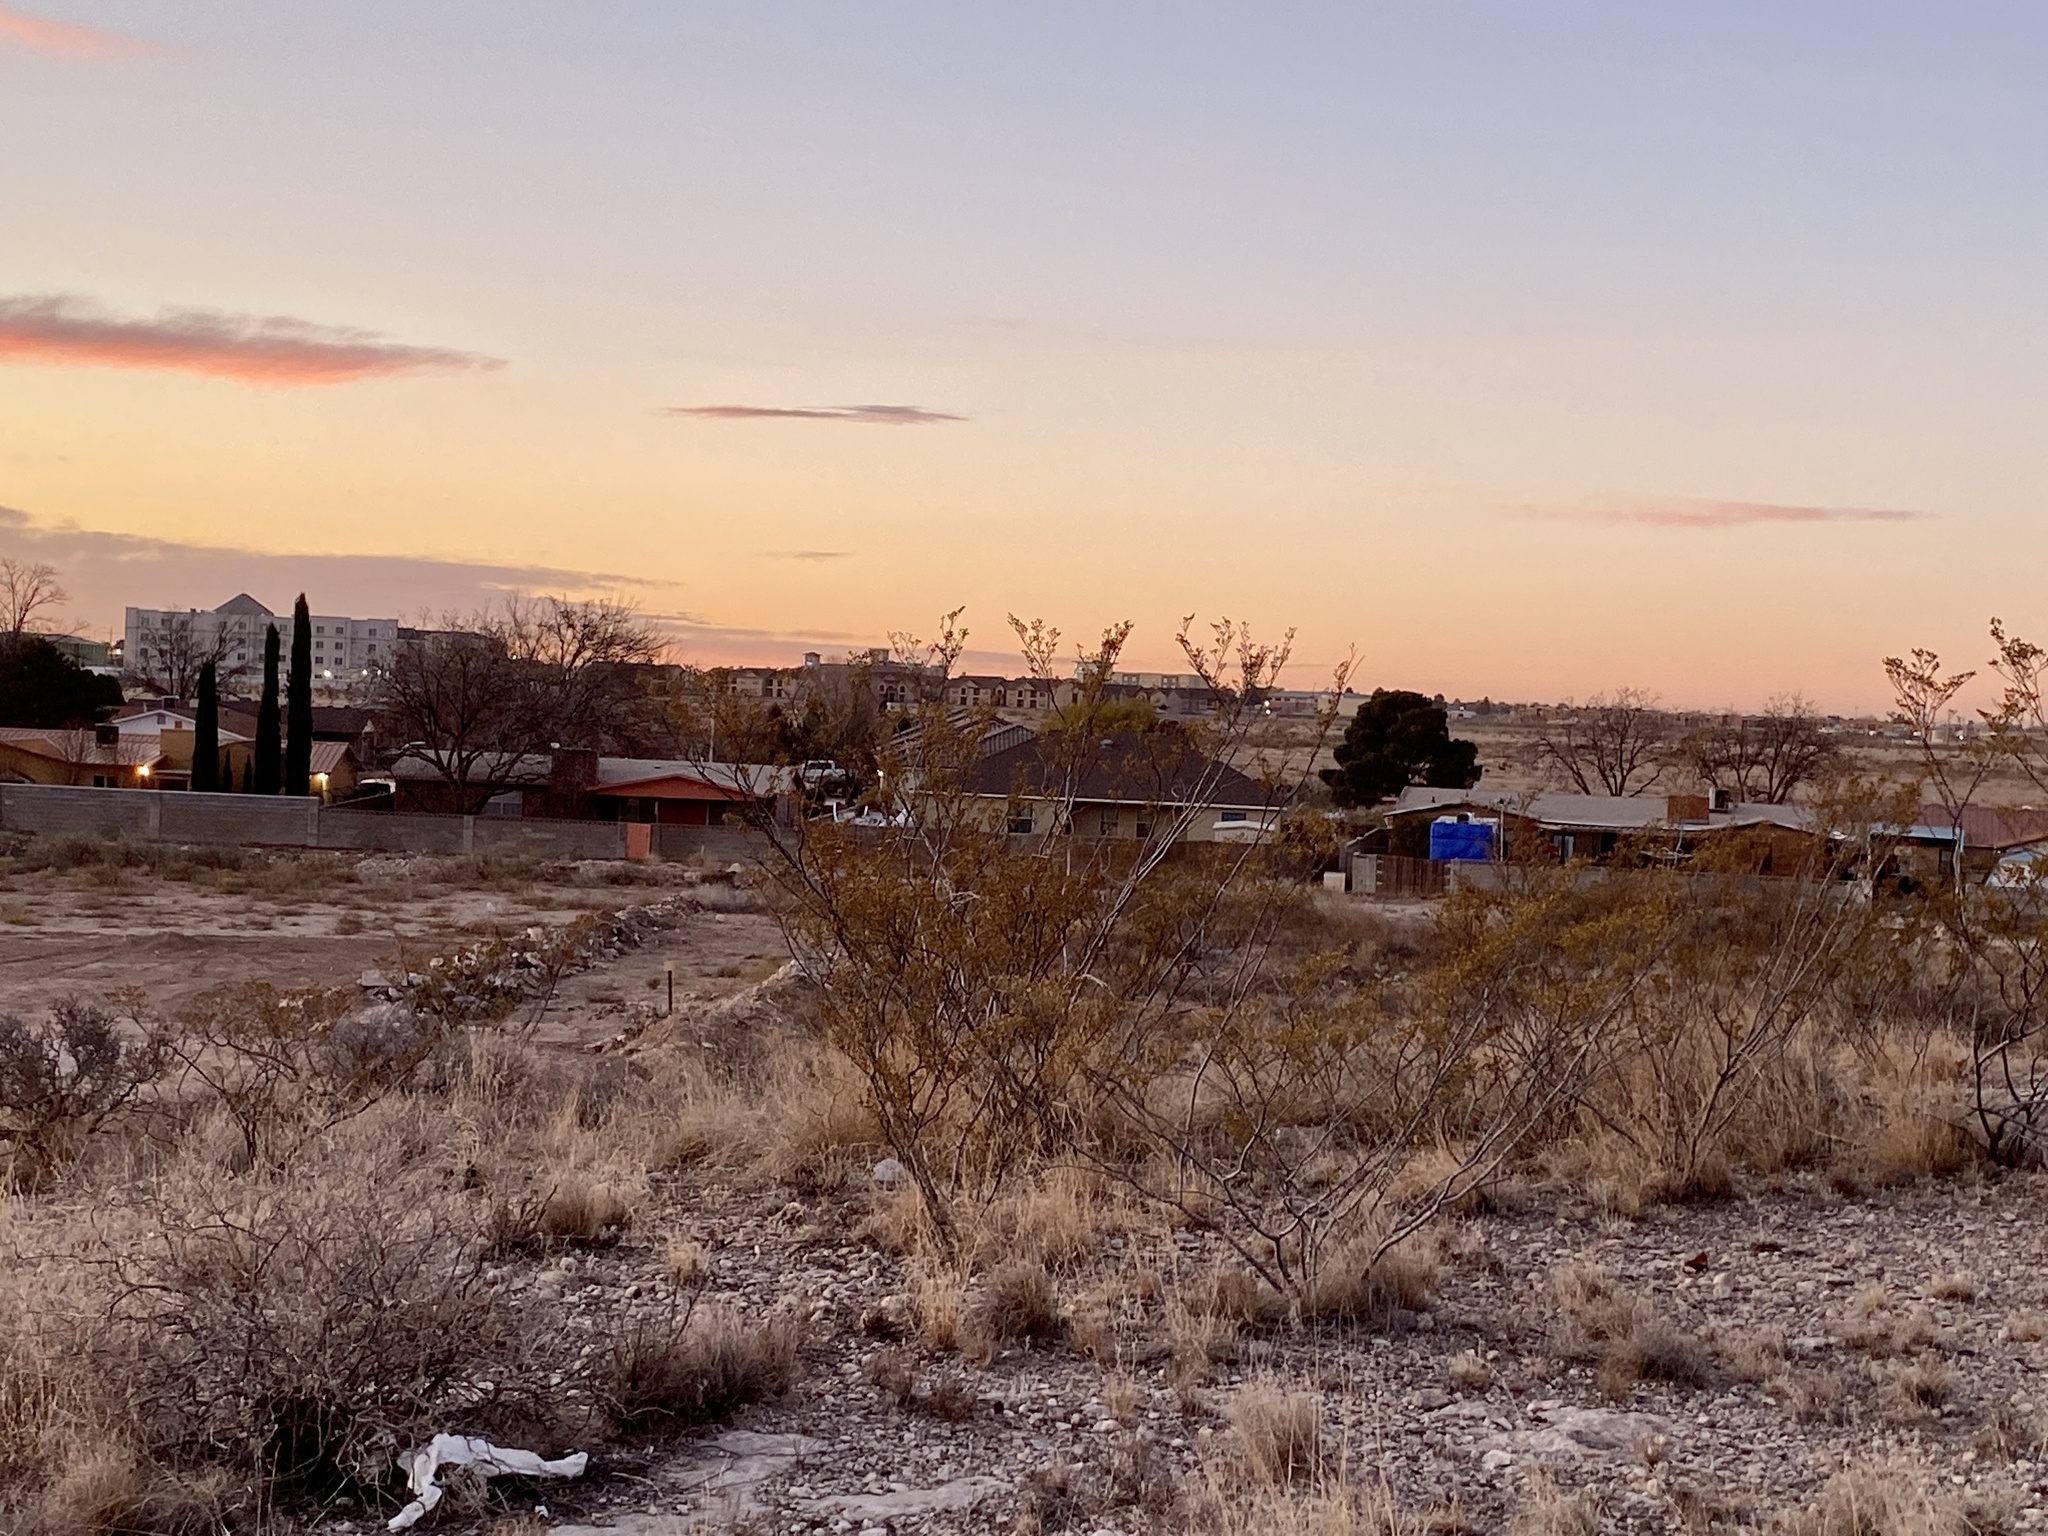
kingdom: Plantae
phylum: Tracheophyta
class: Magnoliopsida
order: Zygophyllales
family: Zygophyllaceae
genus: Larrea
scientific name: Larrea tridentata
